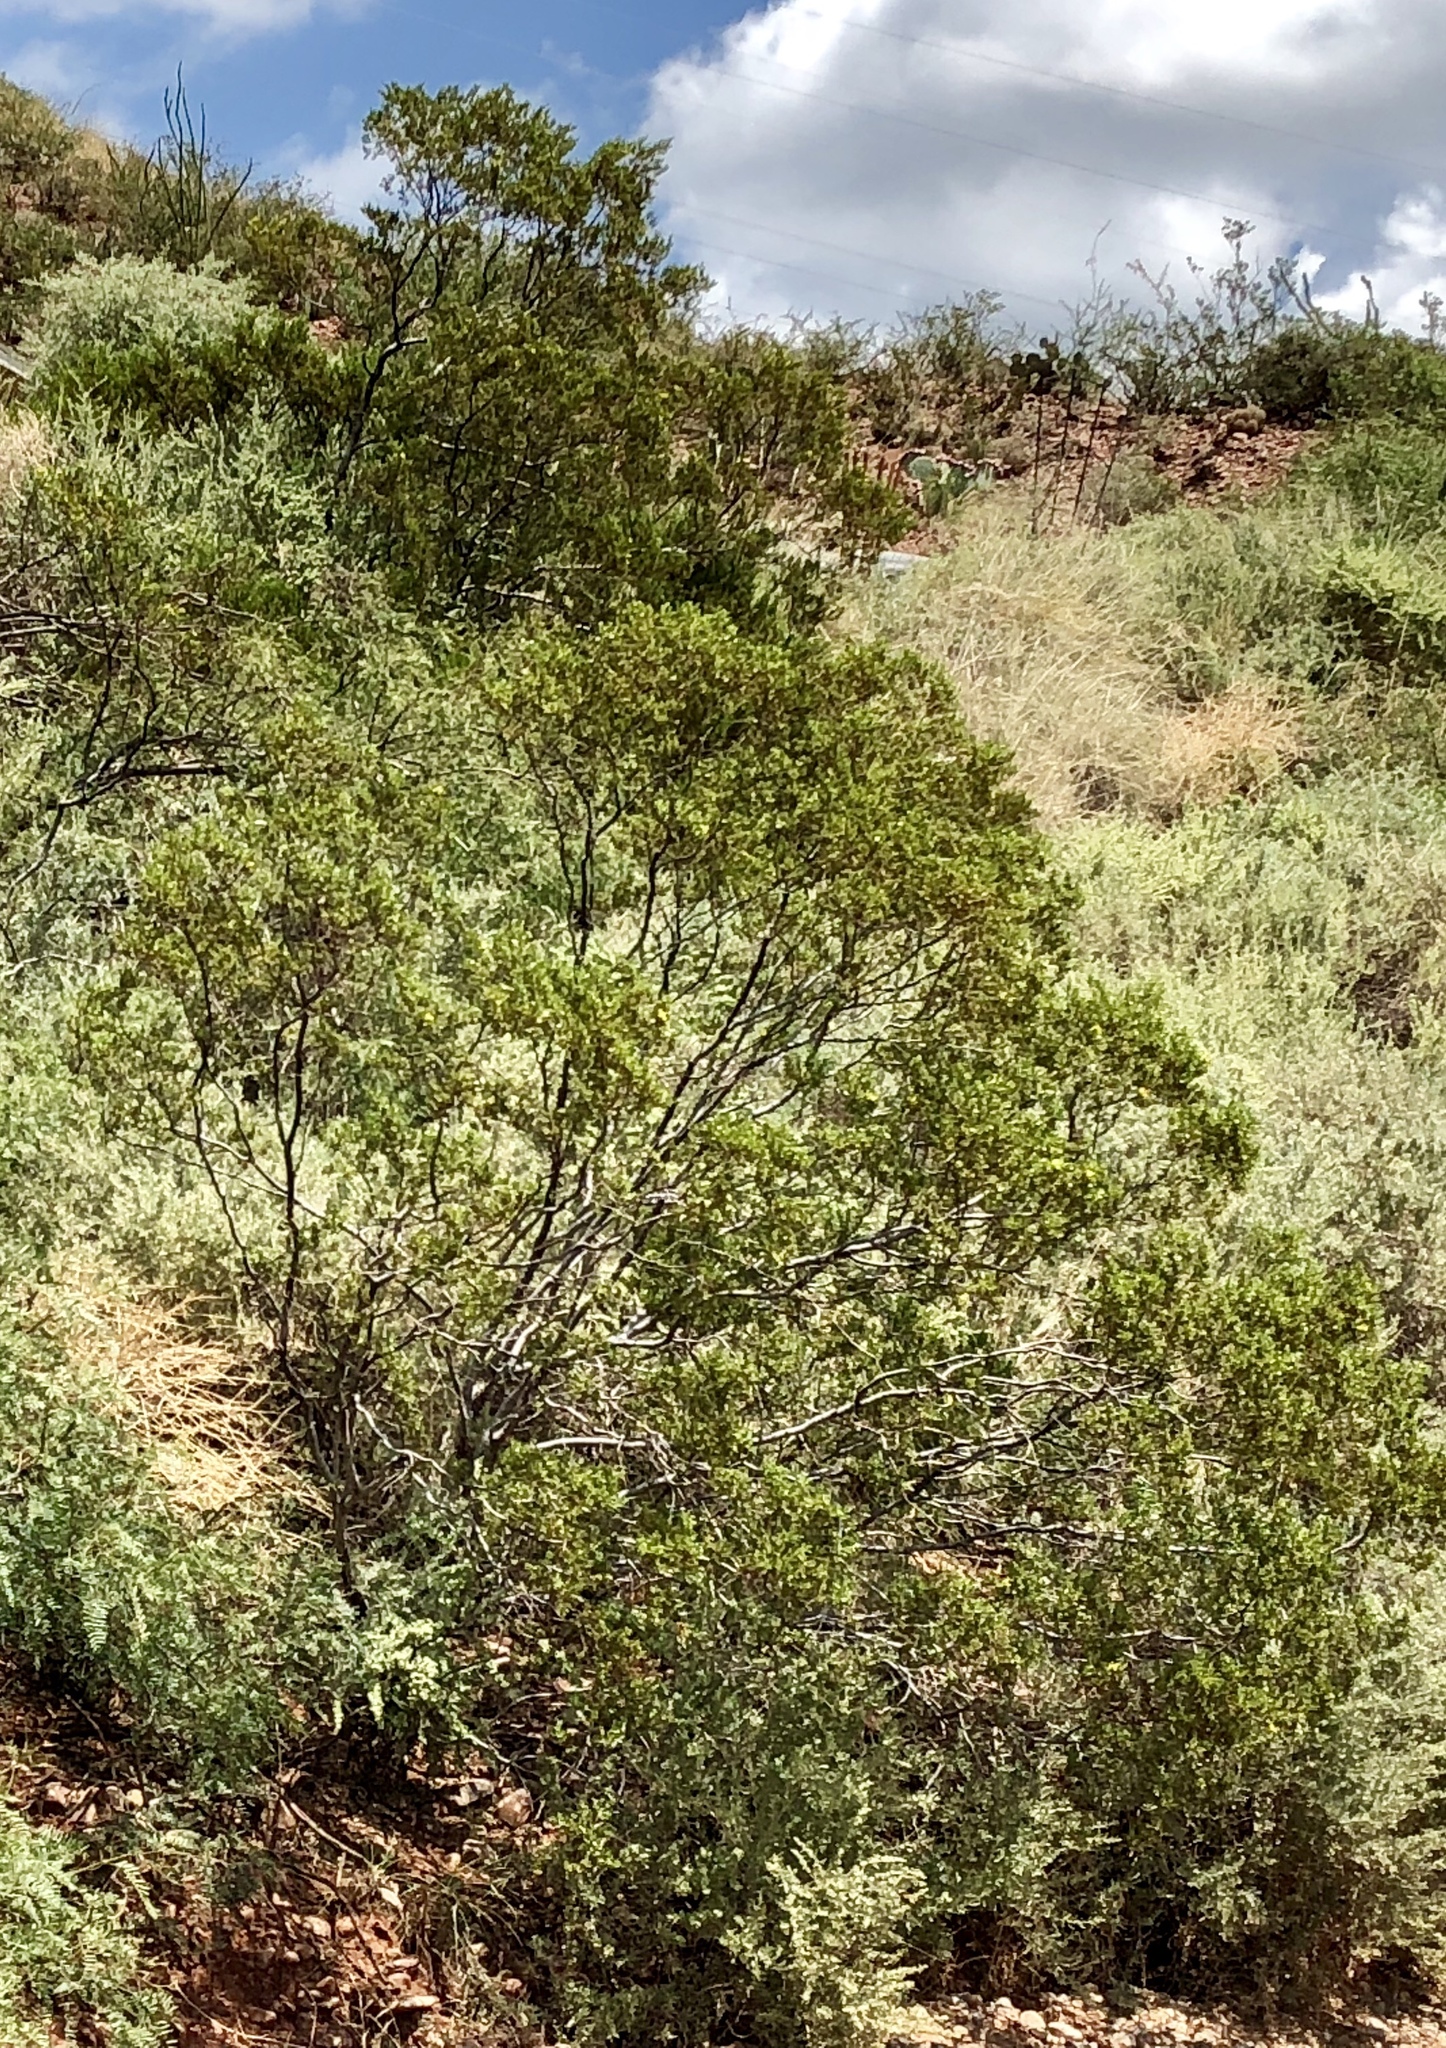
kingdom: Plantae
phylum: Tracheophyta
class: Magnoliopsida
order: Zygophyllales
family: Zygophyllaceae
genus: Larrea
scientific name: Larrea tridentata
